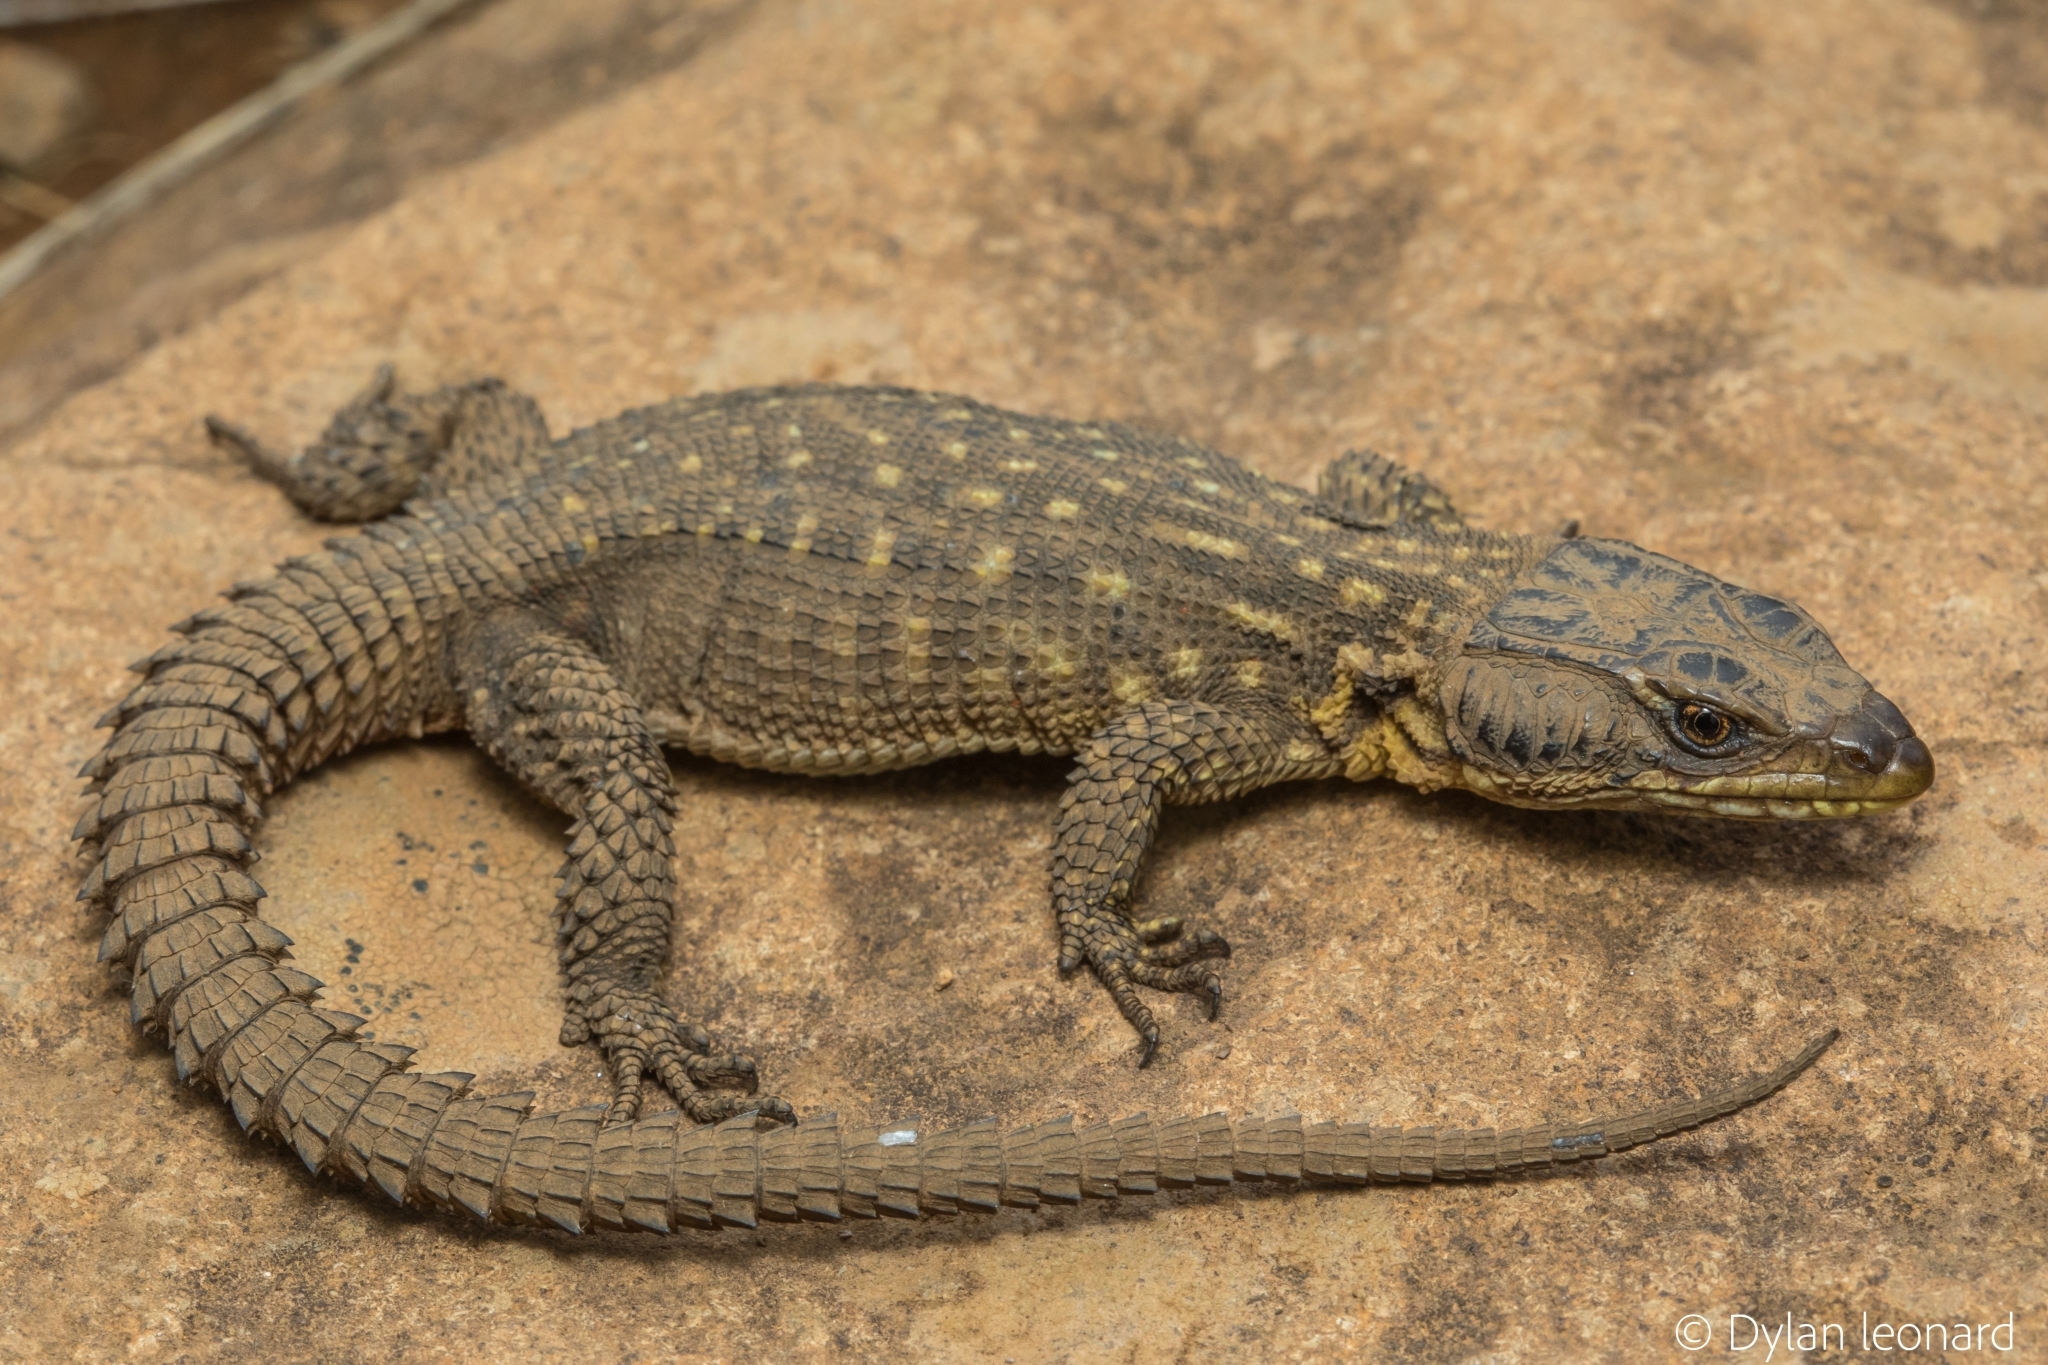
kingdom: Animalia
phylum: Chordata
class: Squamata
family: Cordylidae
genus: Pseudocordylus
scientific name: Pseudocordylus spinosus
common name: Spiny crag lizard
